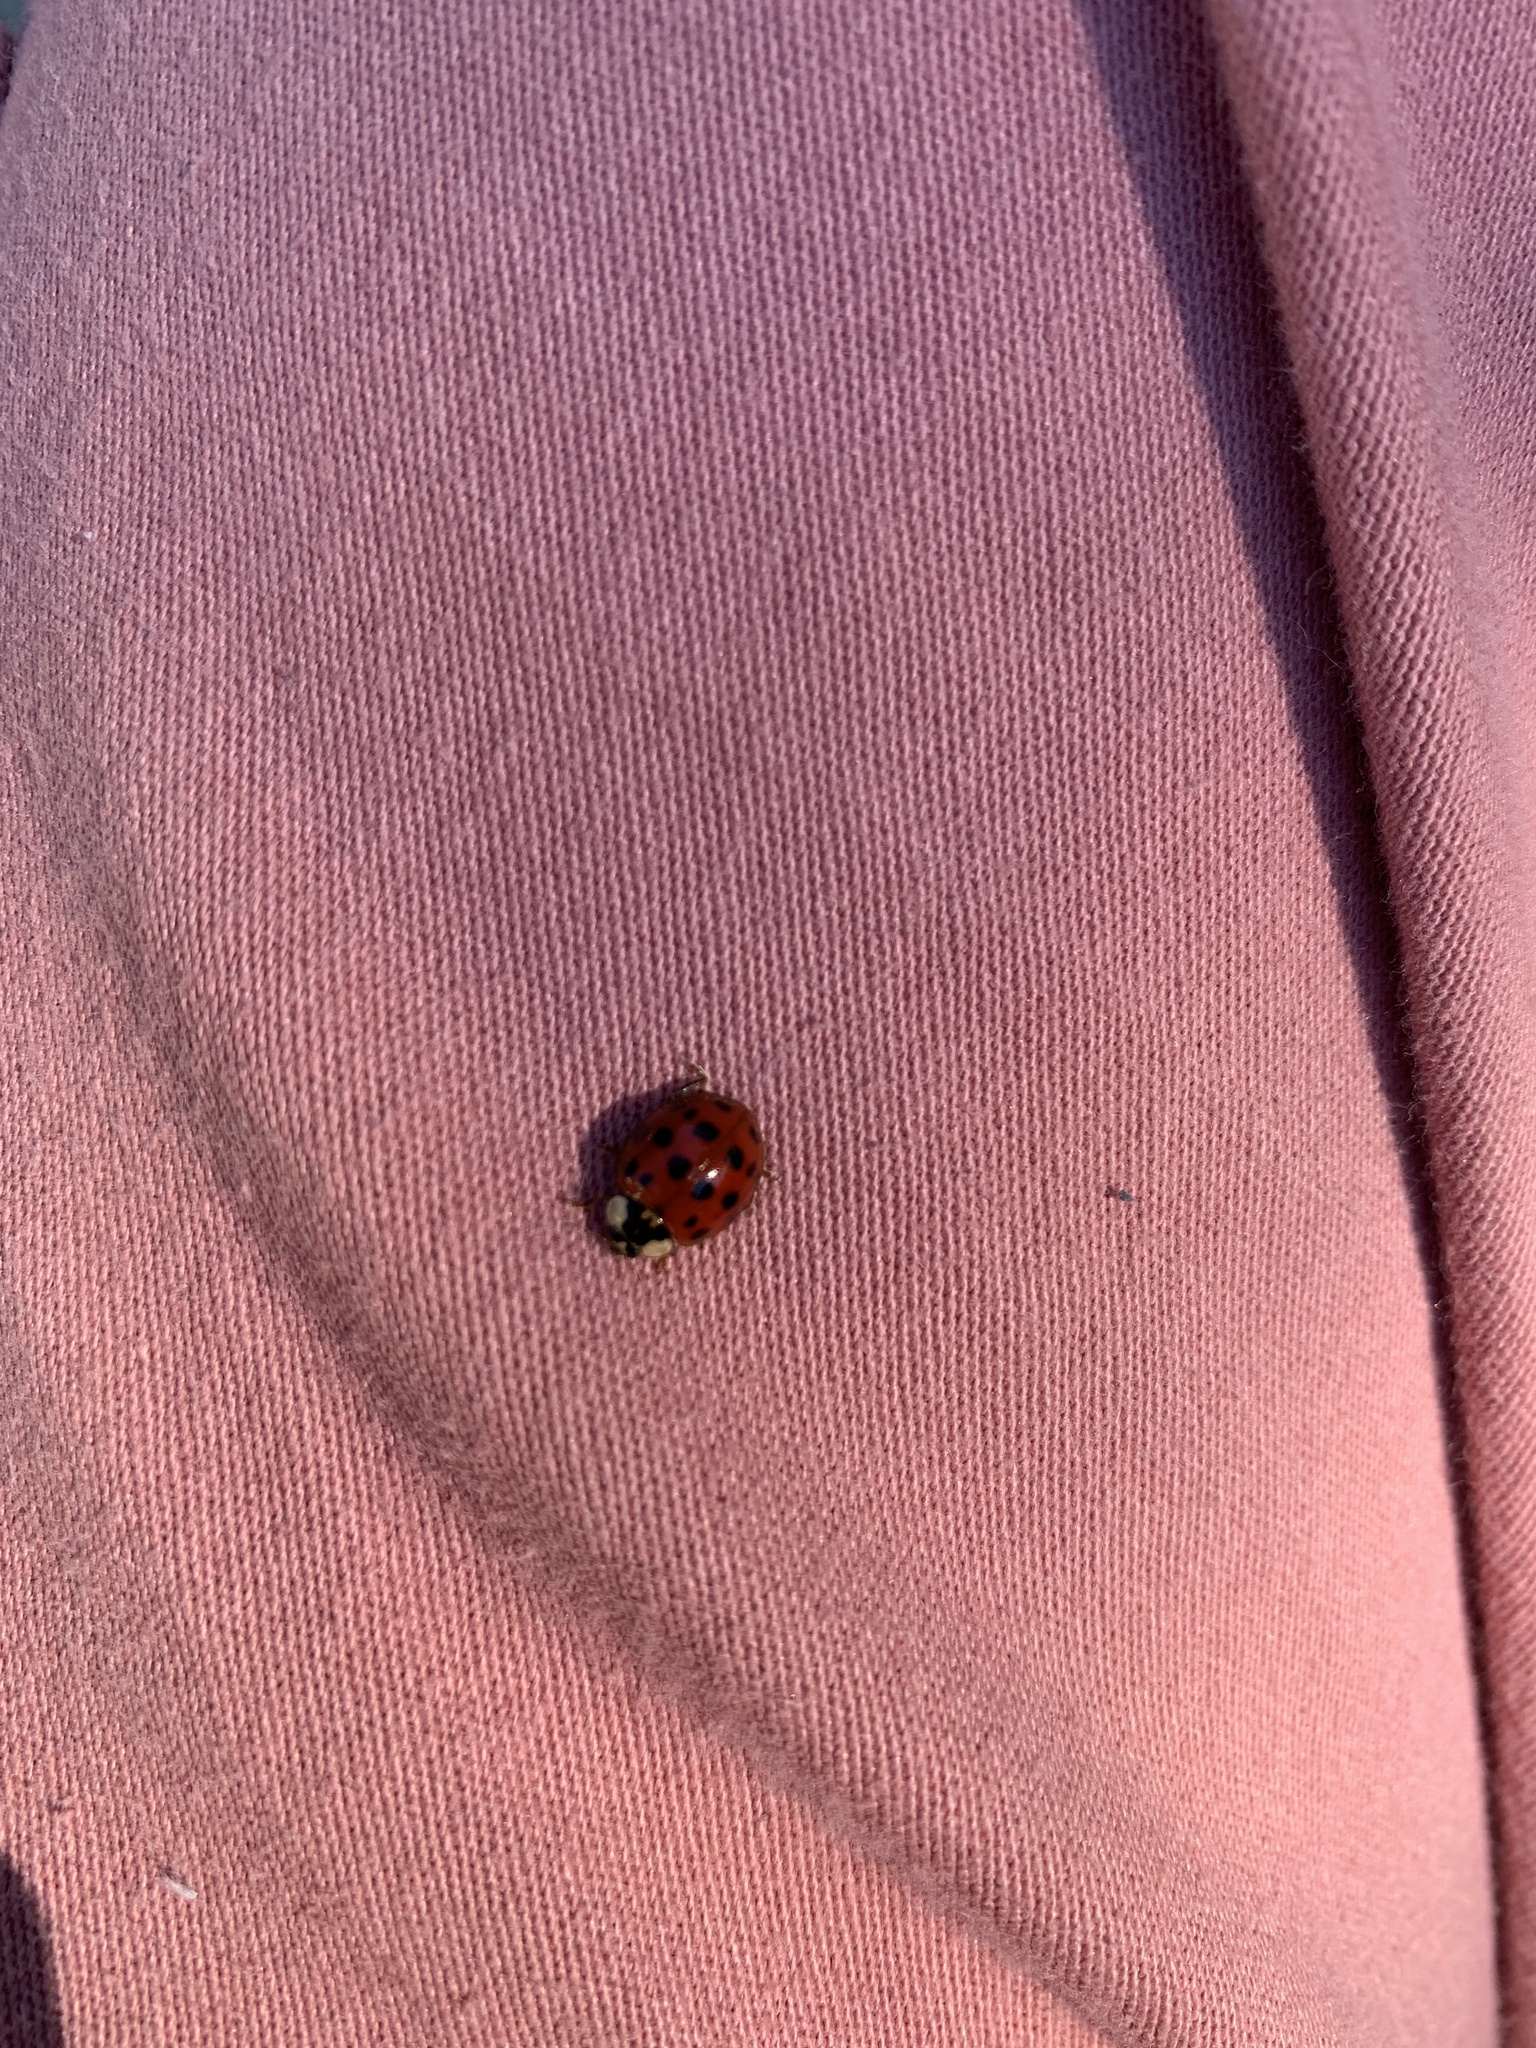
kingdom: Animalia
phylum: Arthropoda
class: Insecta
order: Coleoptera
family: Coccinellidae
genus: Harmonia
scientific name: Harmonia axyridis
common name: Harlequin ladybird
